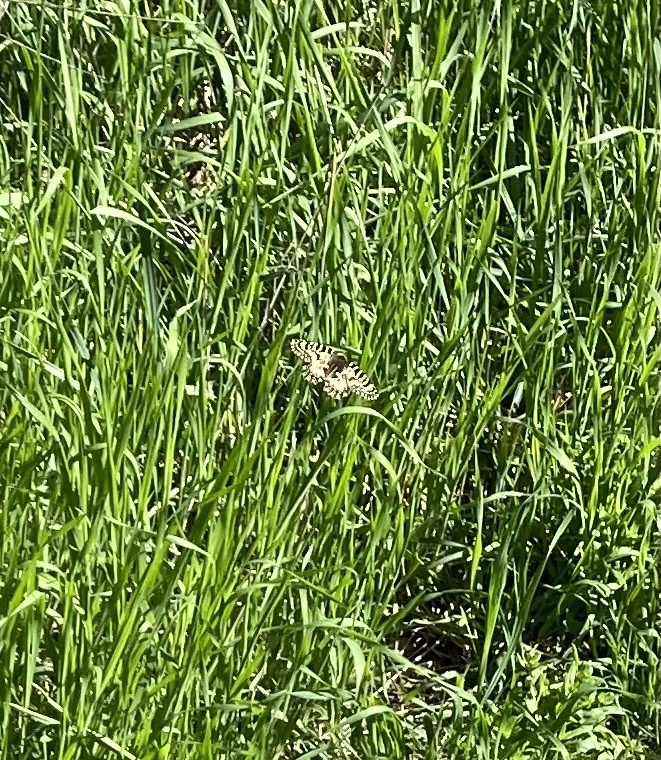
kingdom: Animalia
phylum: Arthropoda
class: Insecta
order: Lepidoptera
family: Papilionidae
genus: Zerynthia
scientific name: Zerynthia polyxena
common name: Southern festoon
